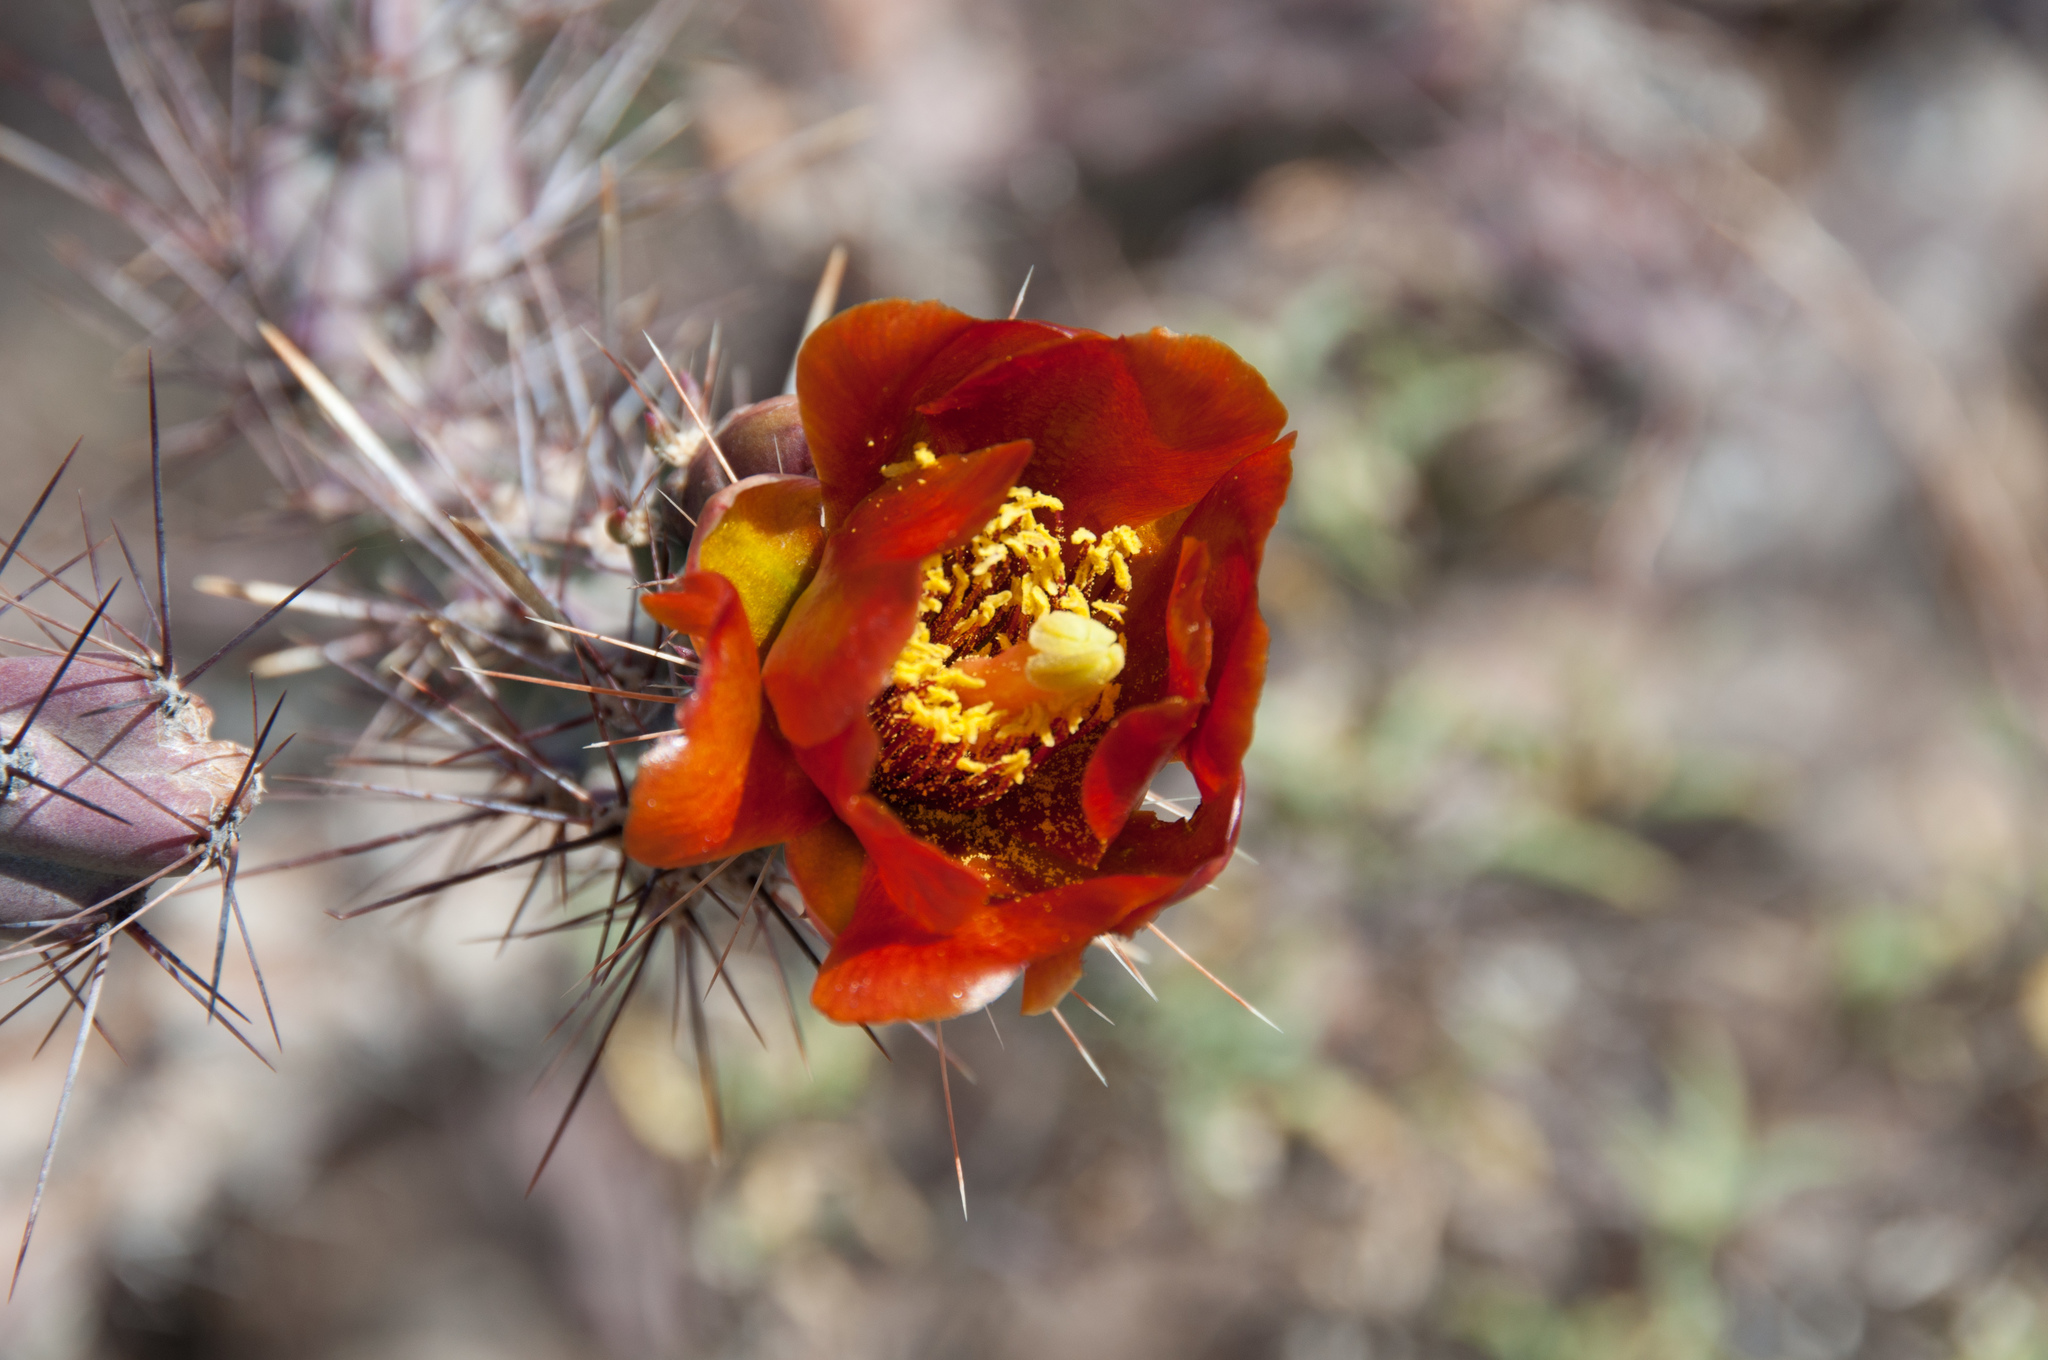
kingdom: Plantae
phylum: Tracheophyta
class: Magnoliopsida
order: Caryophyllales
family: Cactaceae
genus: Cylindropuntia
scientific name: Cylindropuntia thurberi
